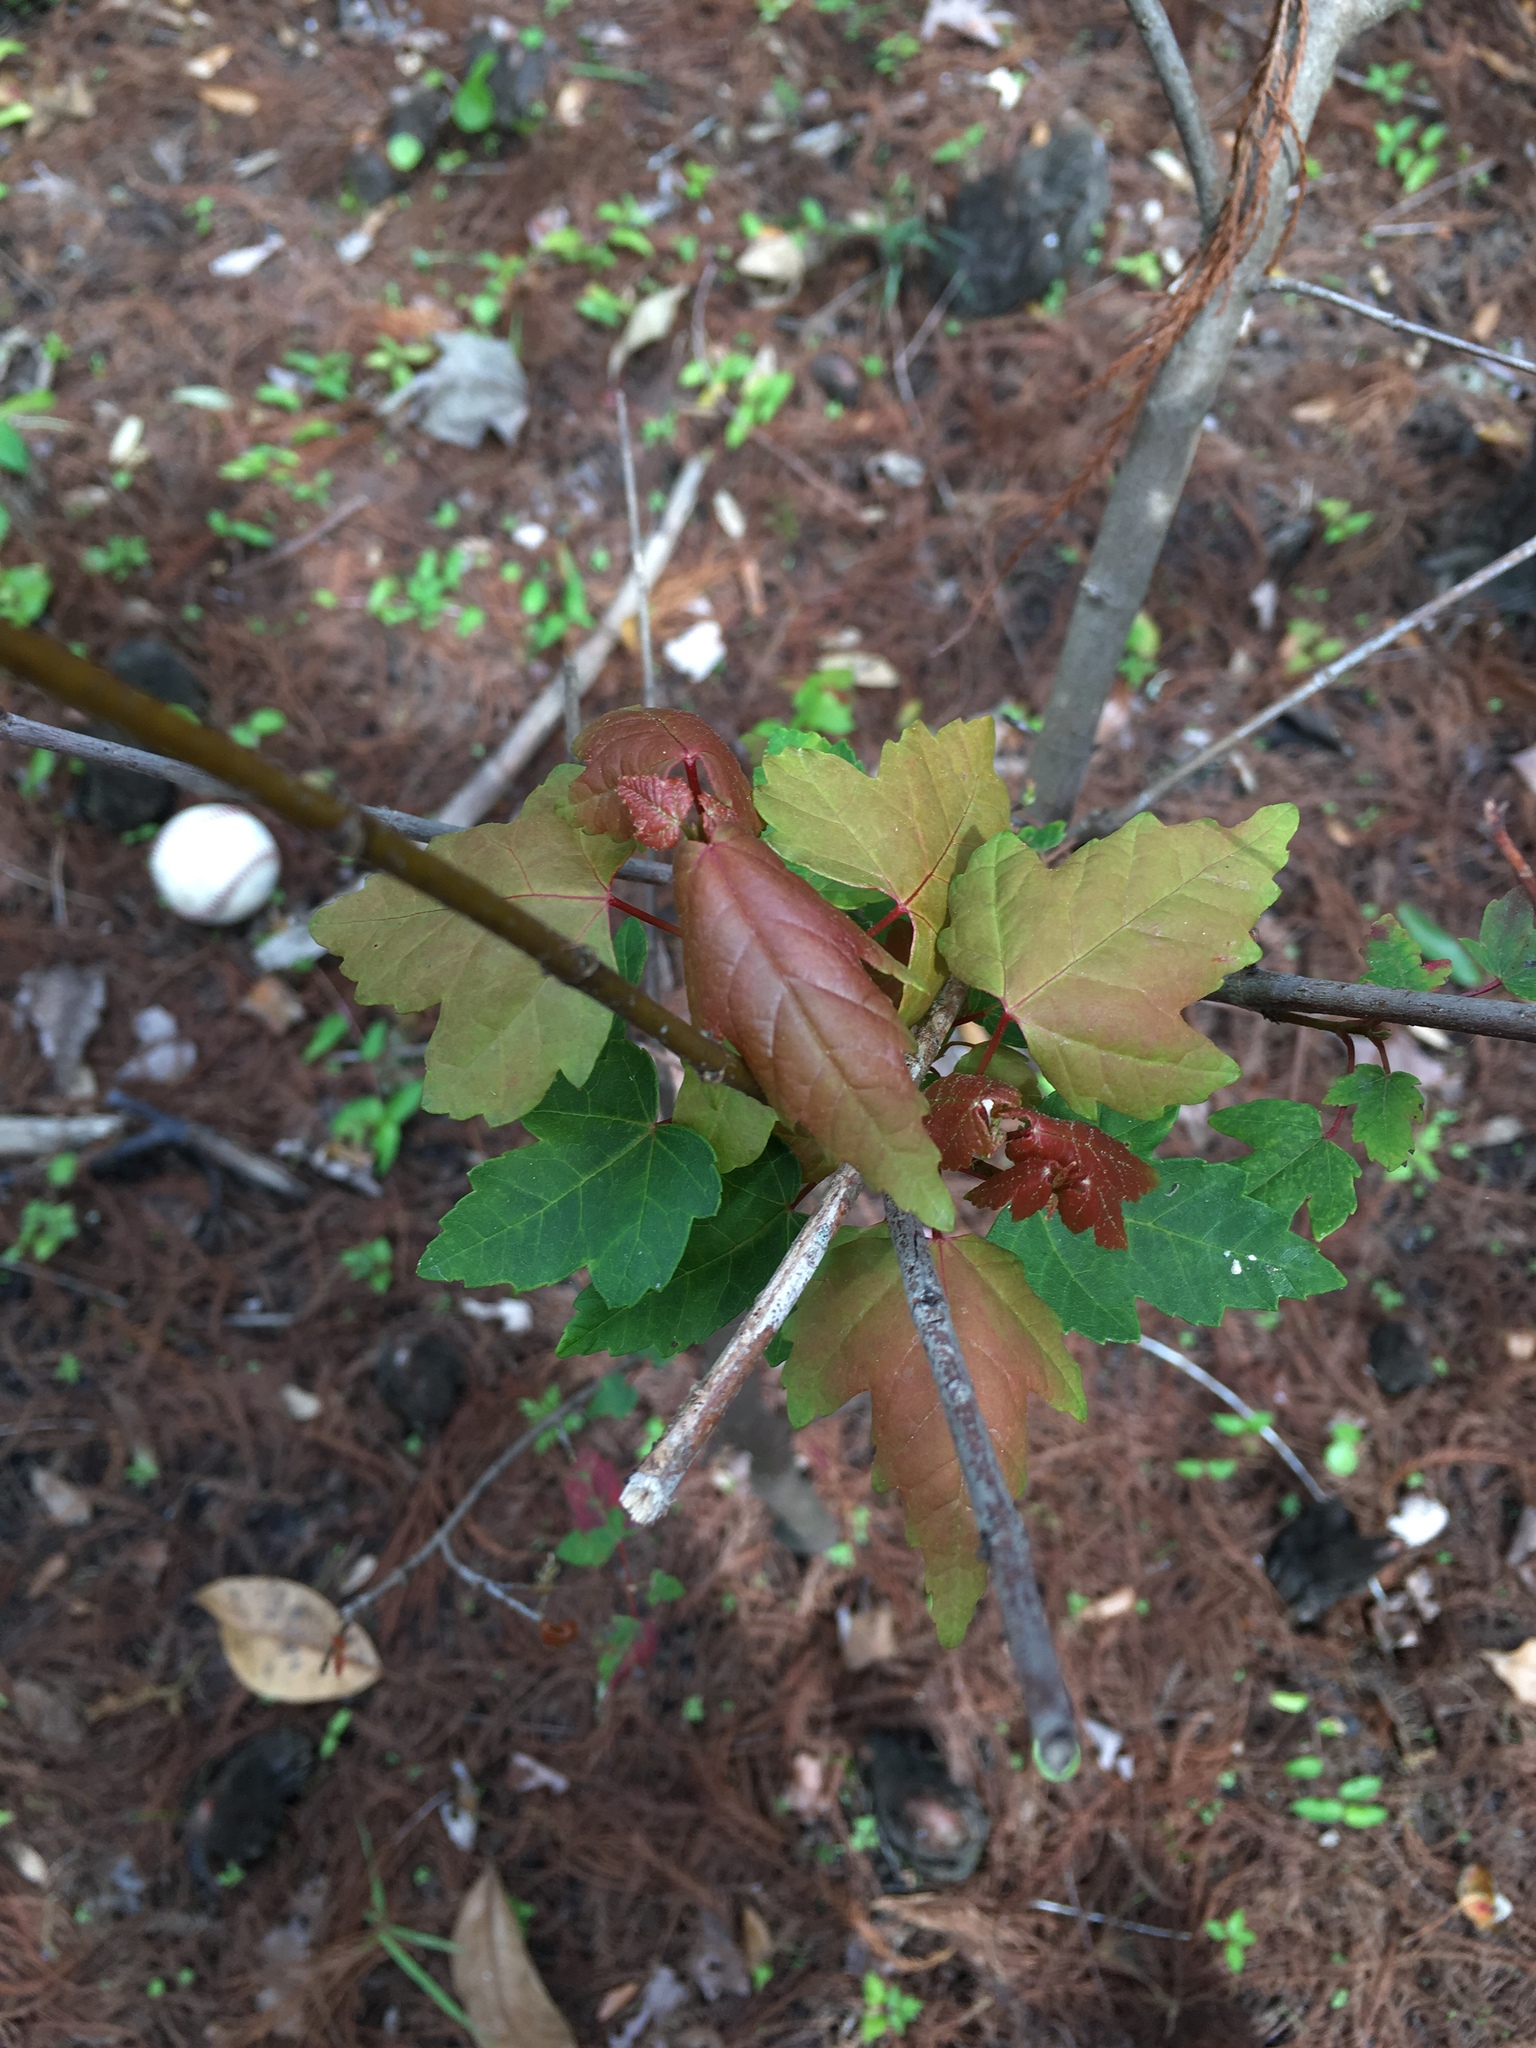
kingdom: Plantae
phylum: Tracheophyta
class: Magnoliopsida
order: Sapindales
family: Sapindaceae
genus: Acer
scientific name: Acer rubrum
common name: Red maple
